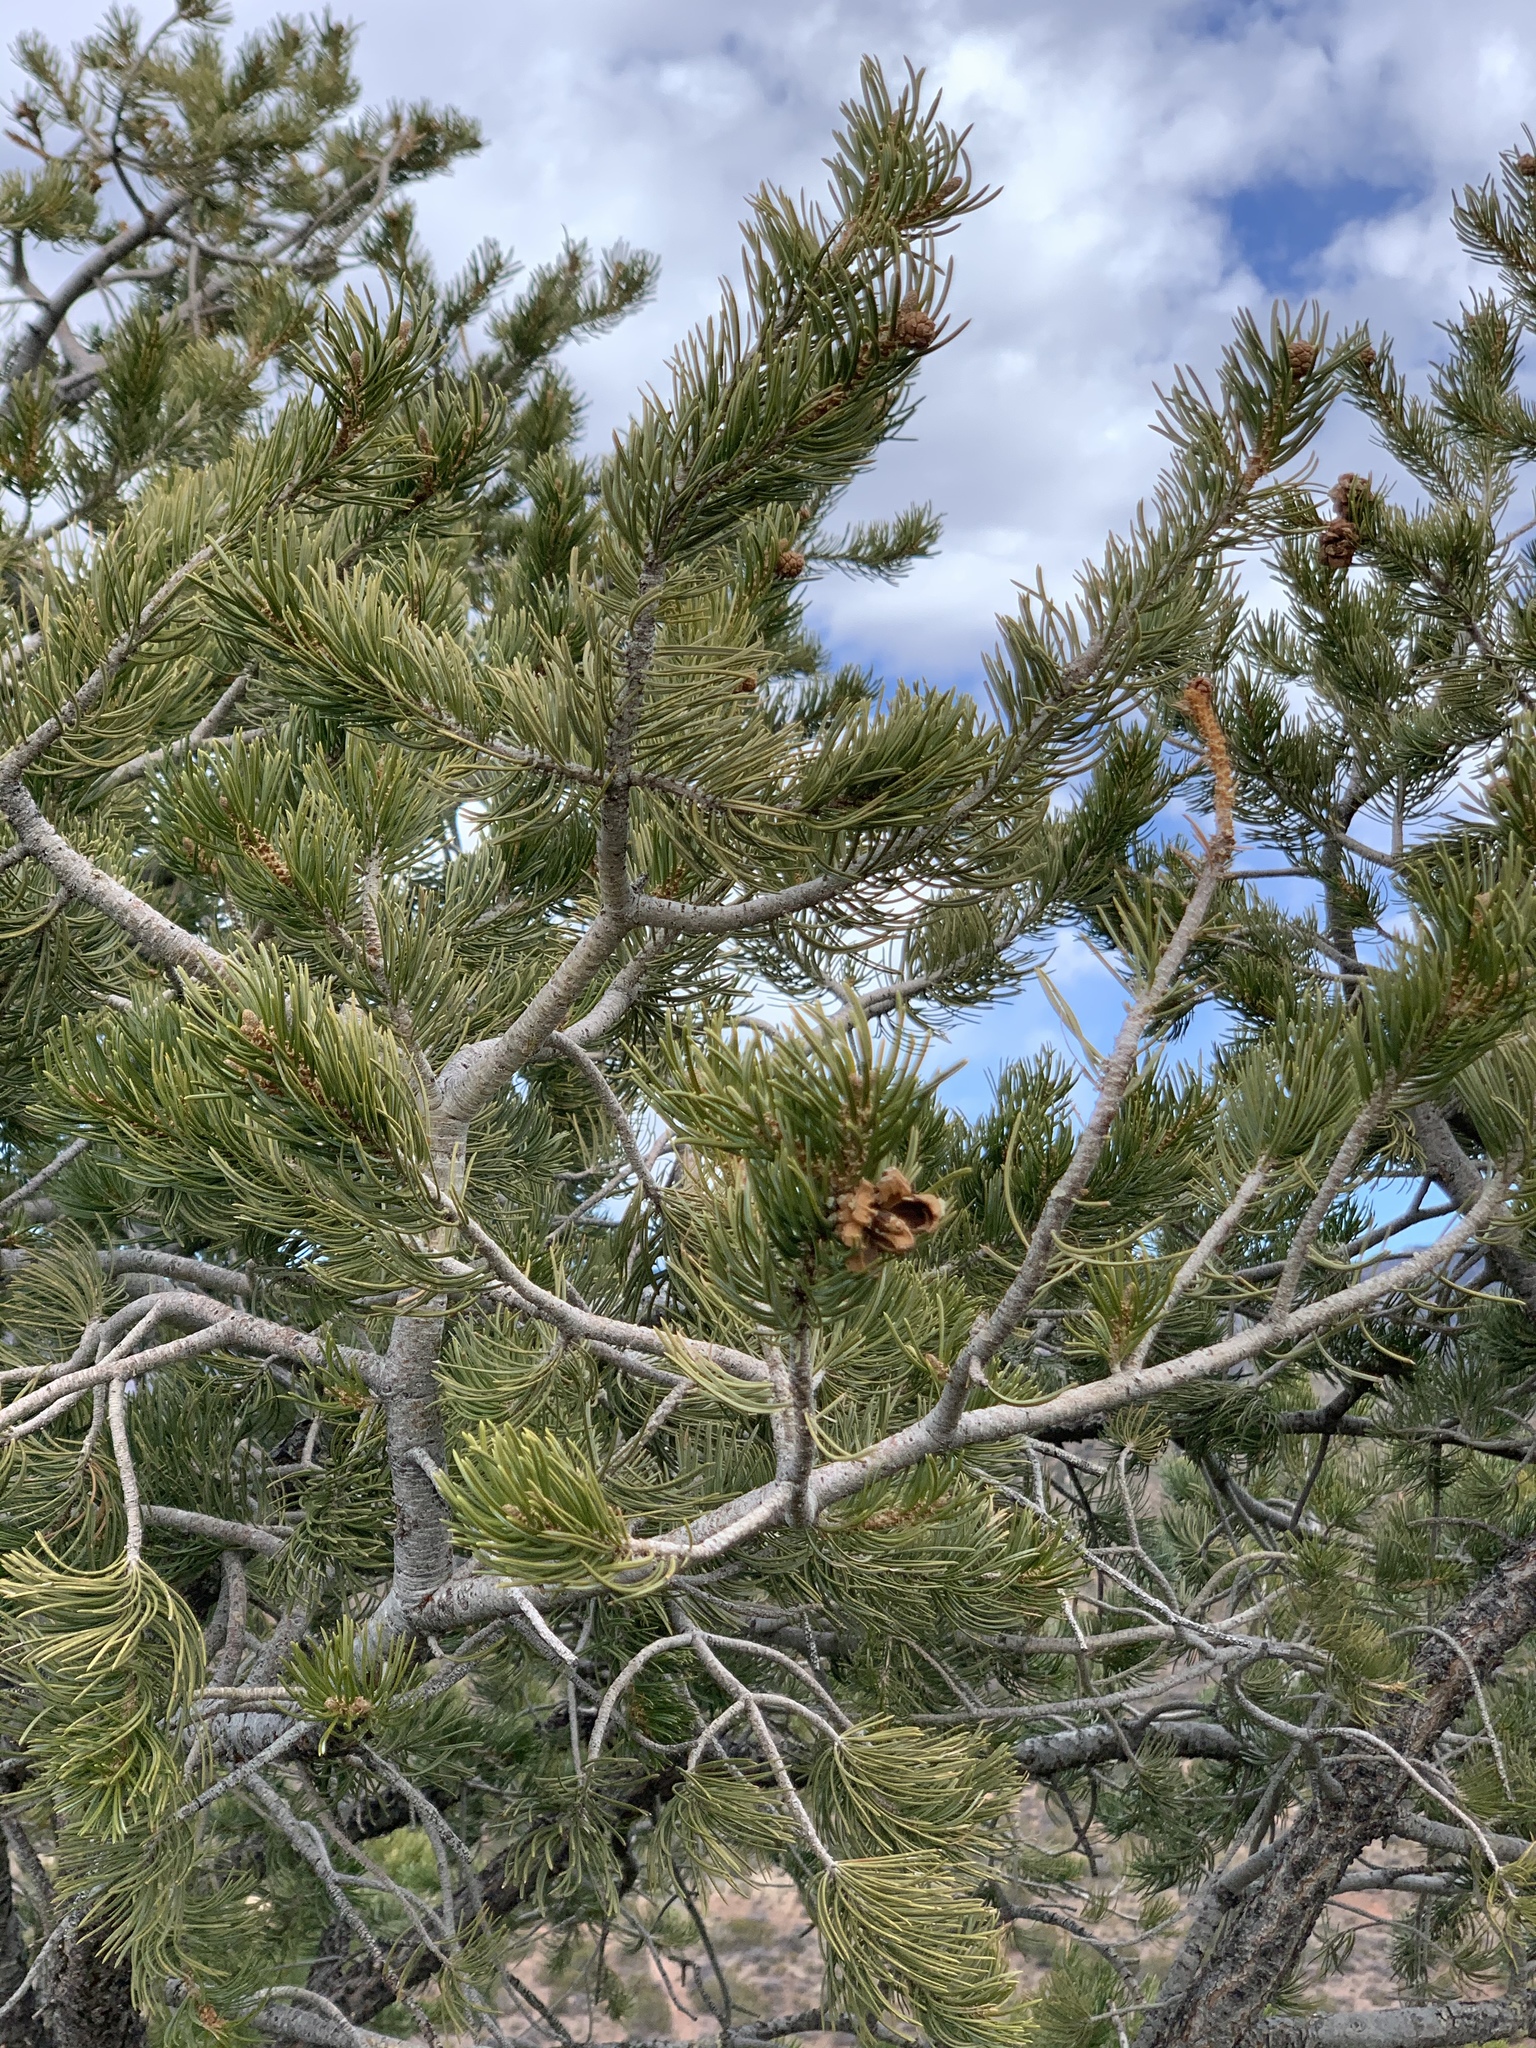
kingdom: Plantae
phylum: Tracheophyta
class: Pinopsida
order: Pinales
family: Pinaceae
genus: Pinus
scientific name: Pinus edulis
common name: Colorado pinyon
